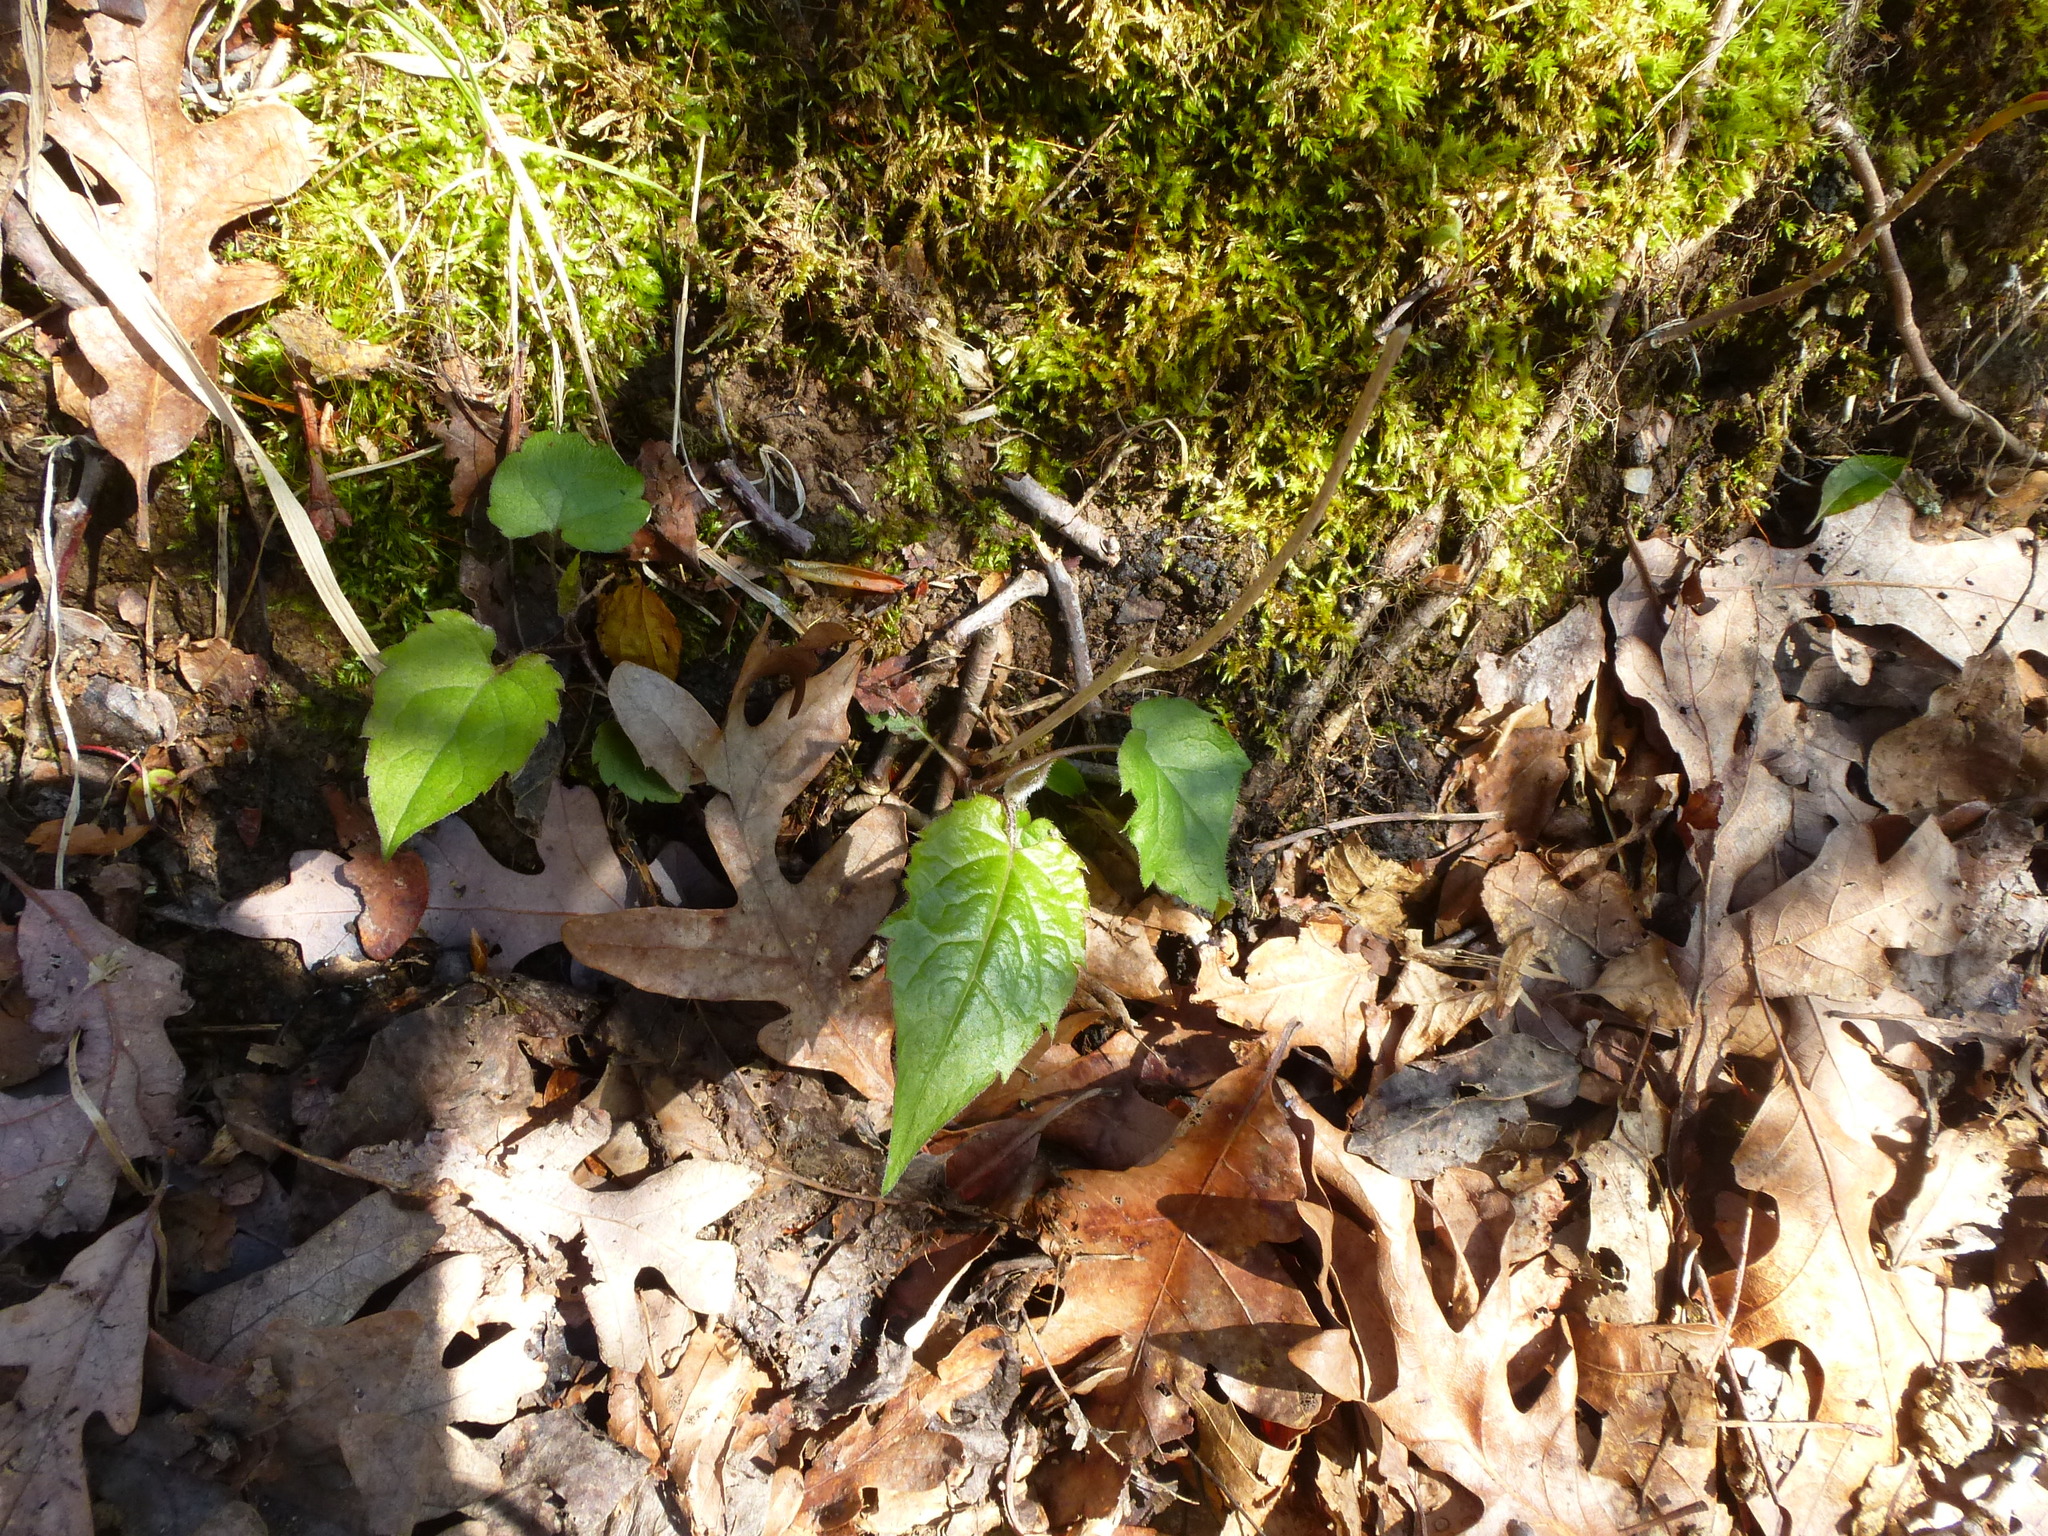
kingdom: Plantae
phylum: Tracheophyta
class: Magnoliopsida
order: Asterales
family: Asteraceae
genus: Eurybia
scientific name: Eurybia divaricata
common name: White wood aster
